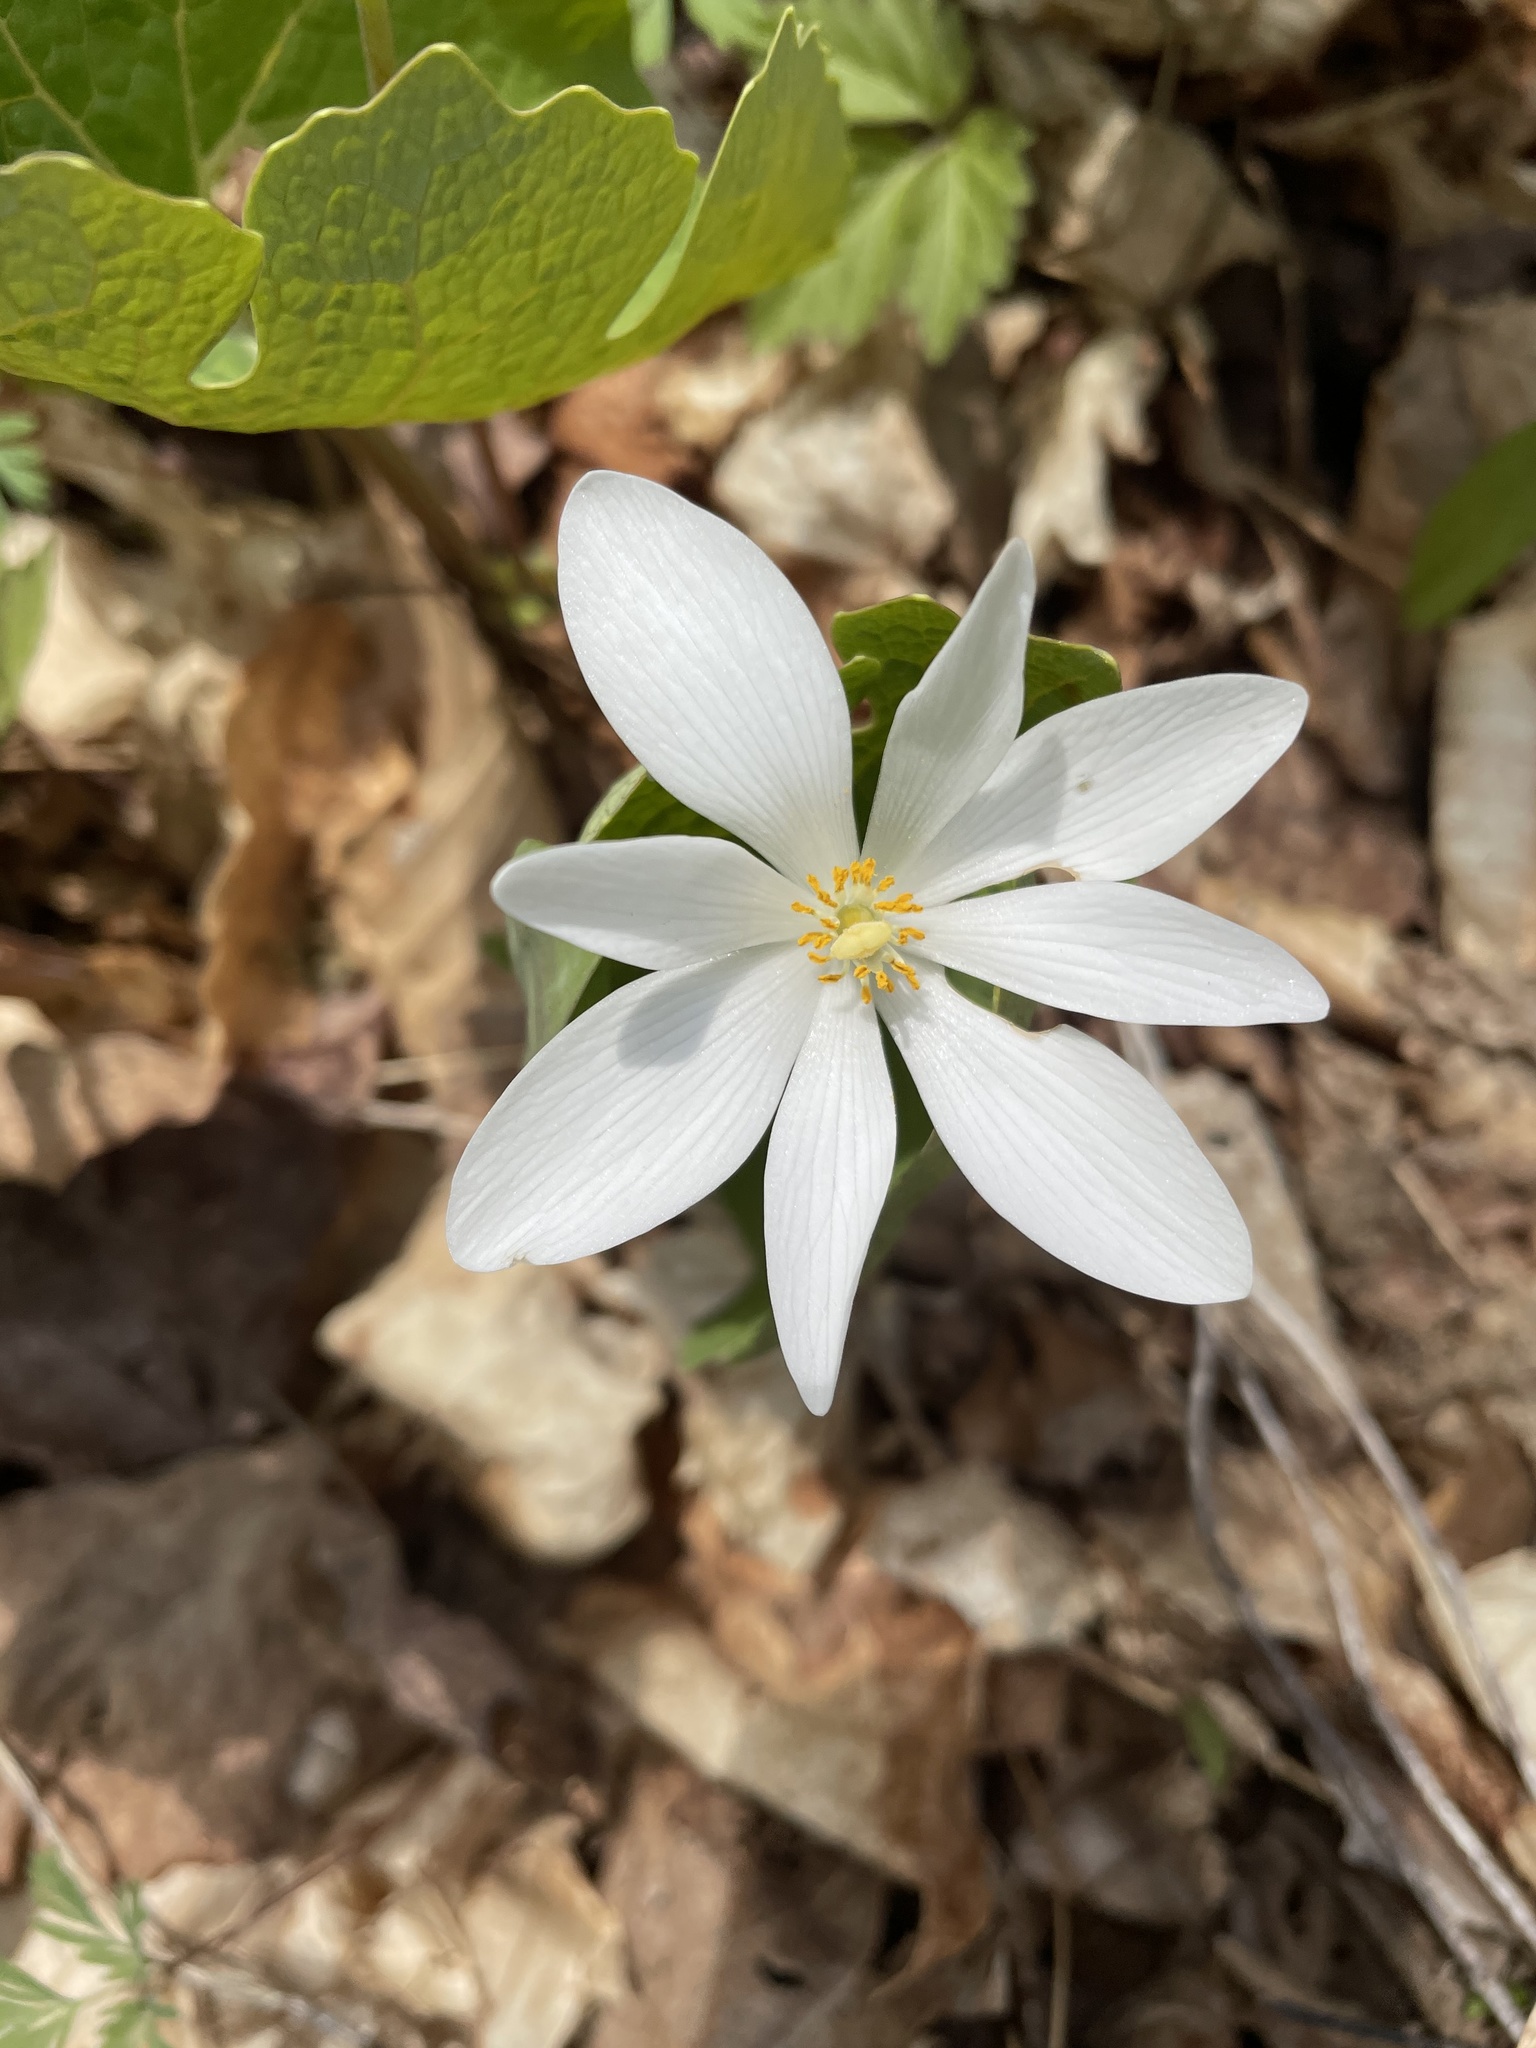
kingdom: Plantae
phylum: Tracheophyta
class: Magnoliopsida
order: Ranunculales
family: Papaveraceae
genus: Sanguinaria
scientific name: Sanguinaria canadensis
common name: Bloodroot
